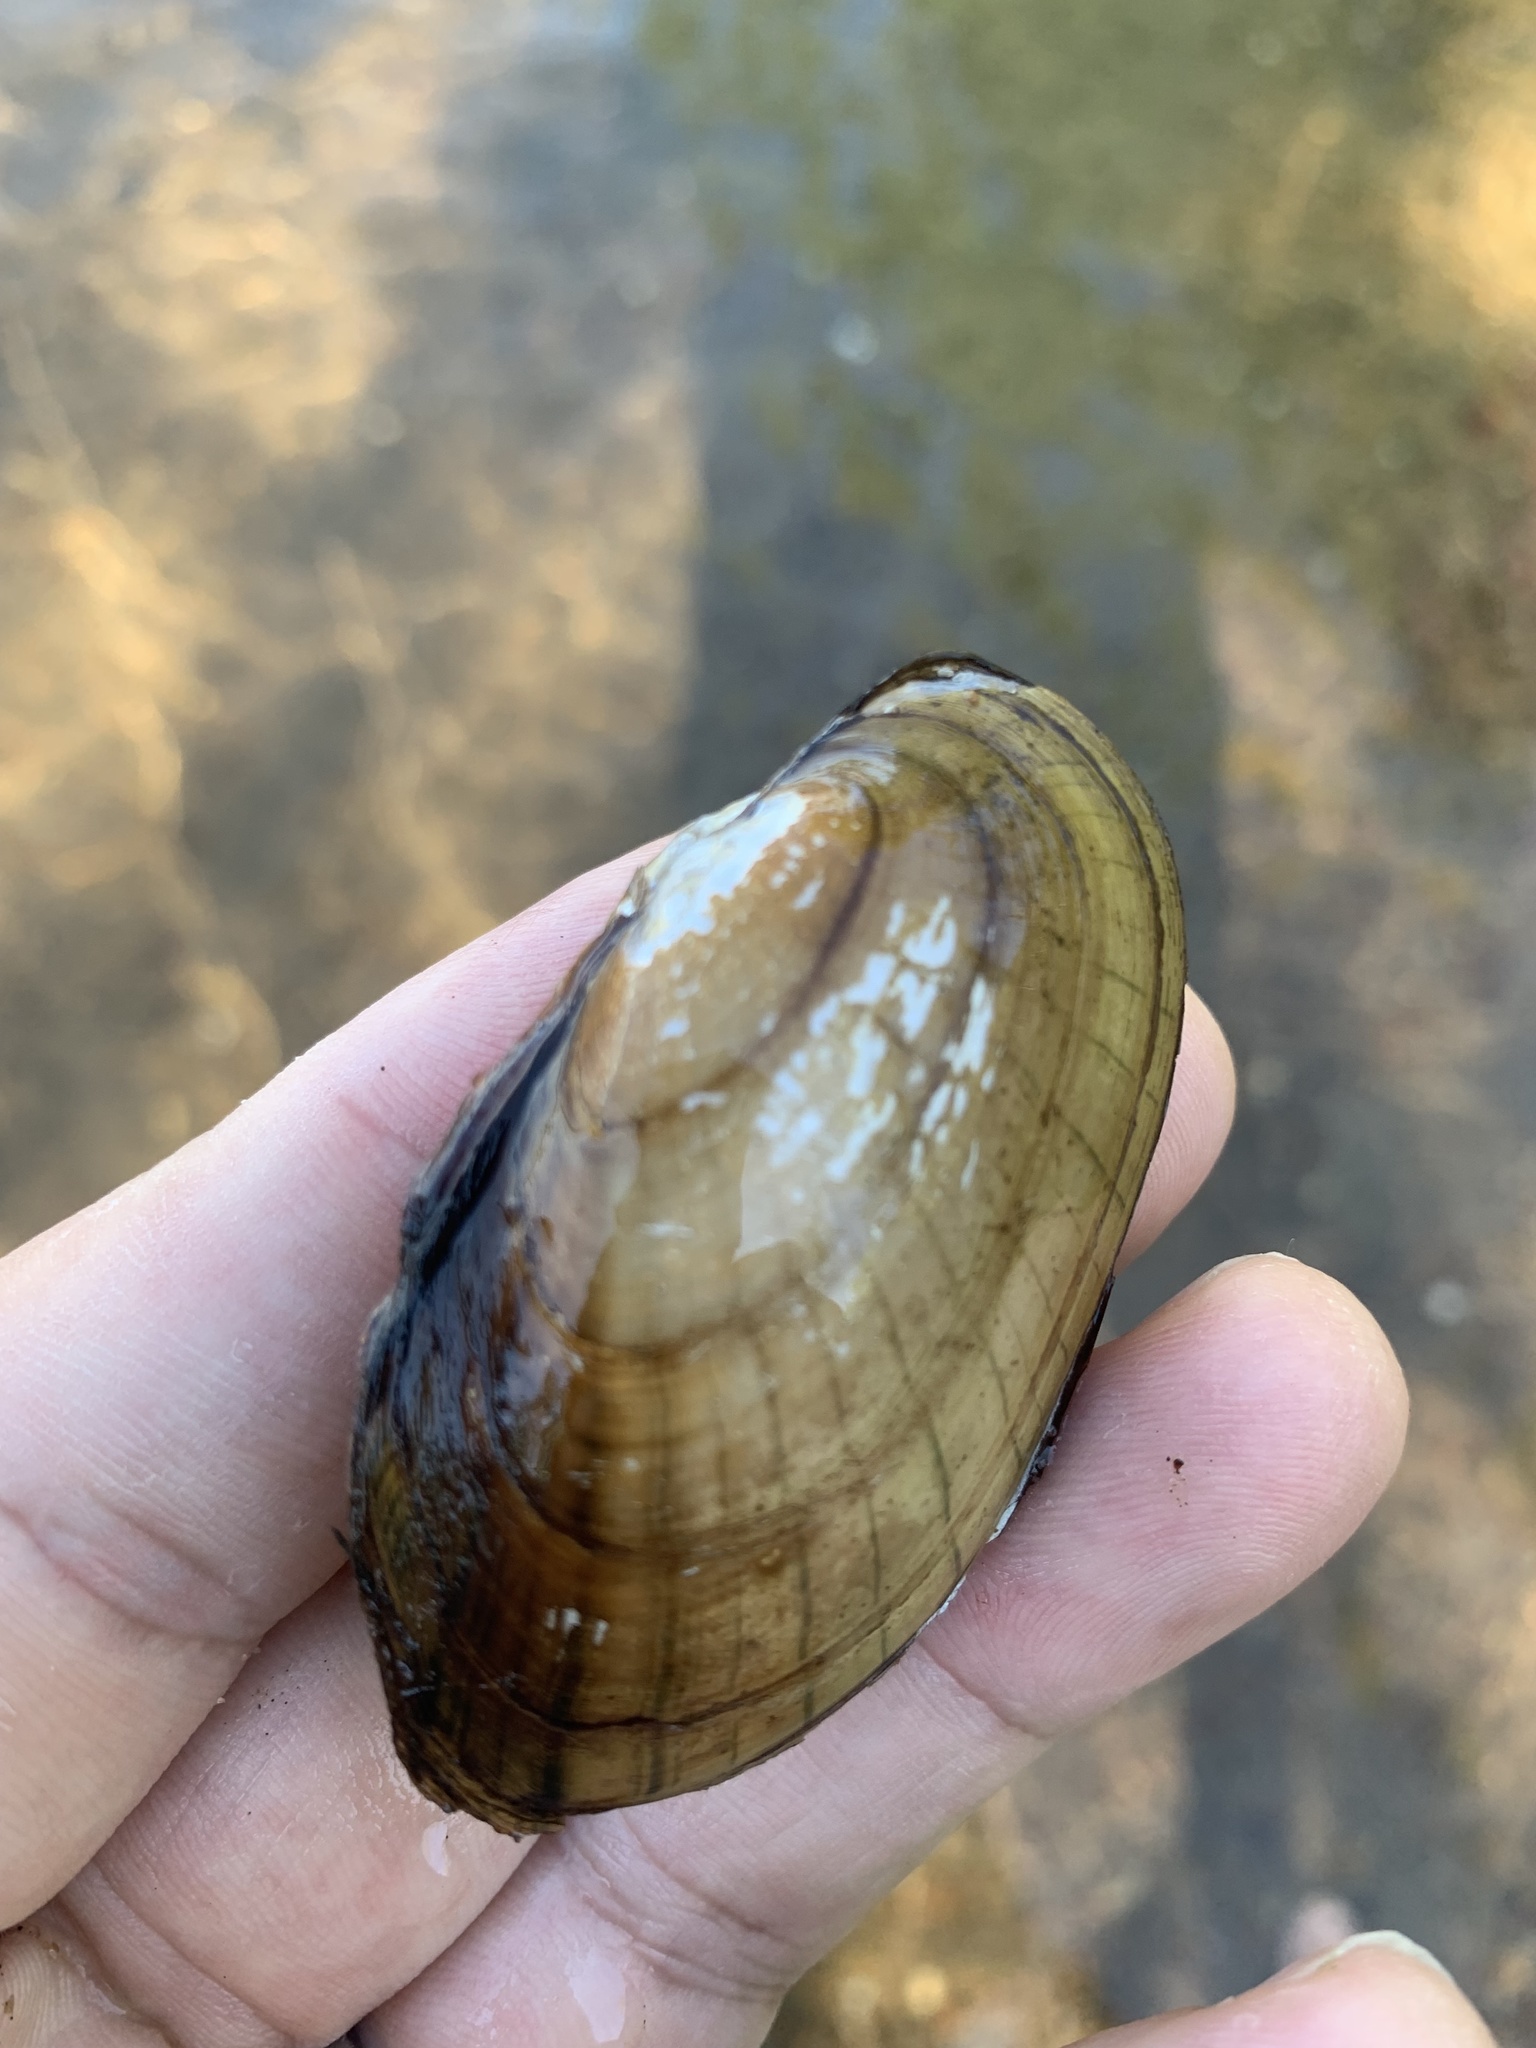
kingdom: Animalia
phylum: Mollusca
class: Bivalvia
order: Unionida
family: Unionidae
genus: Lampsilis
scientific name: Lampsilis siliquoidea
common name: Fatmucket
